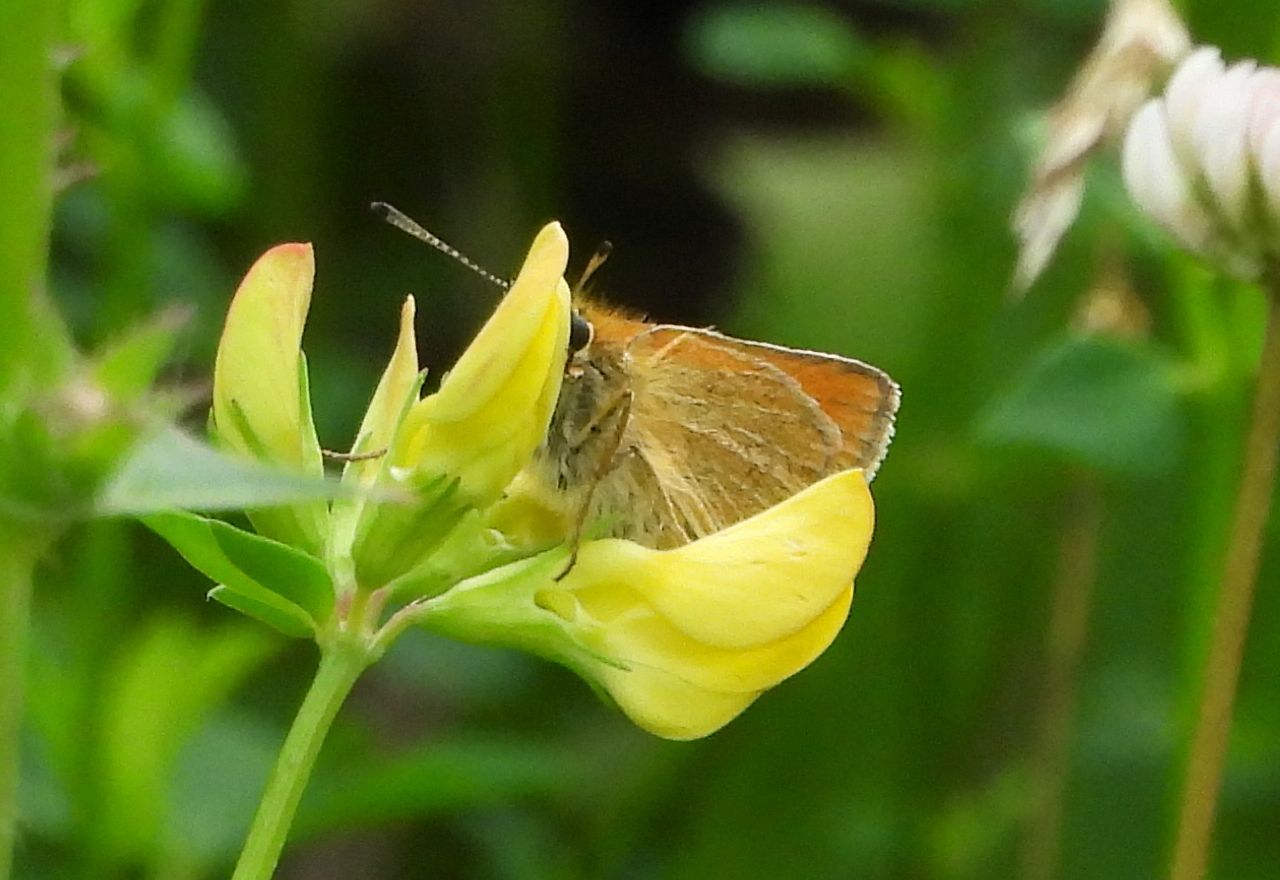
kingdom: Animalia
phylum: Arthropoda
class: Insecta
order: Lepidoptera
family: Hesperiidae
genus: Thymelicus
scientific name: Thymelicus lineola
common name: Essex skipper
